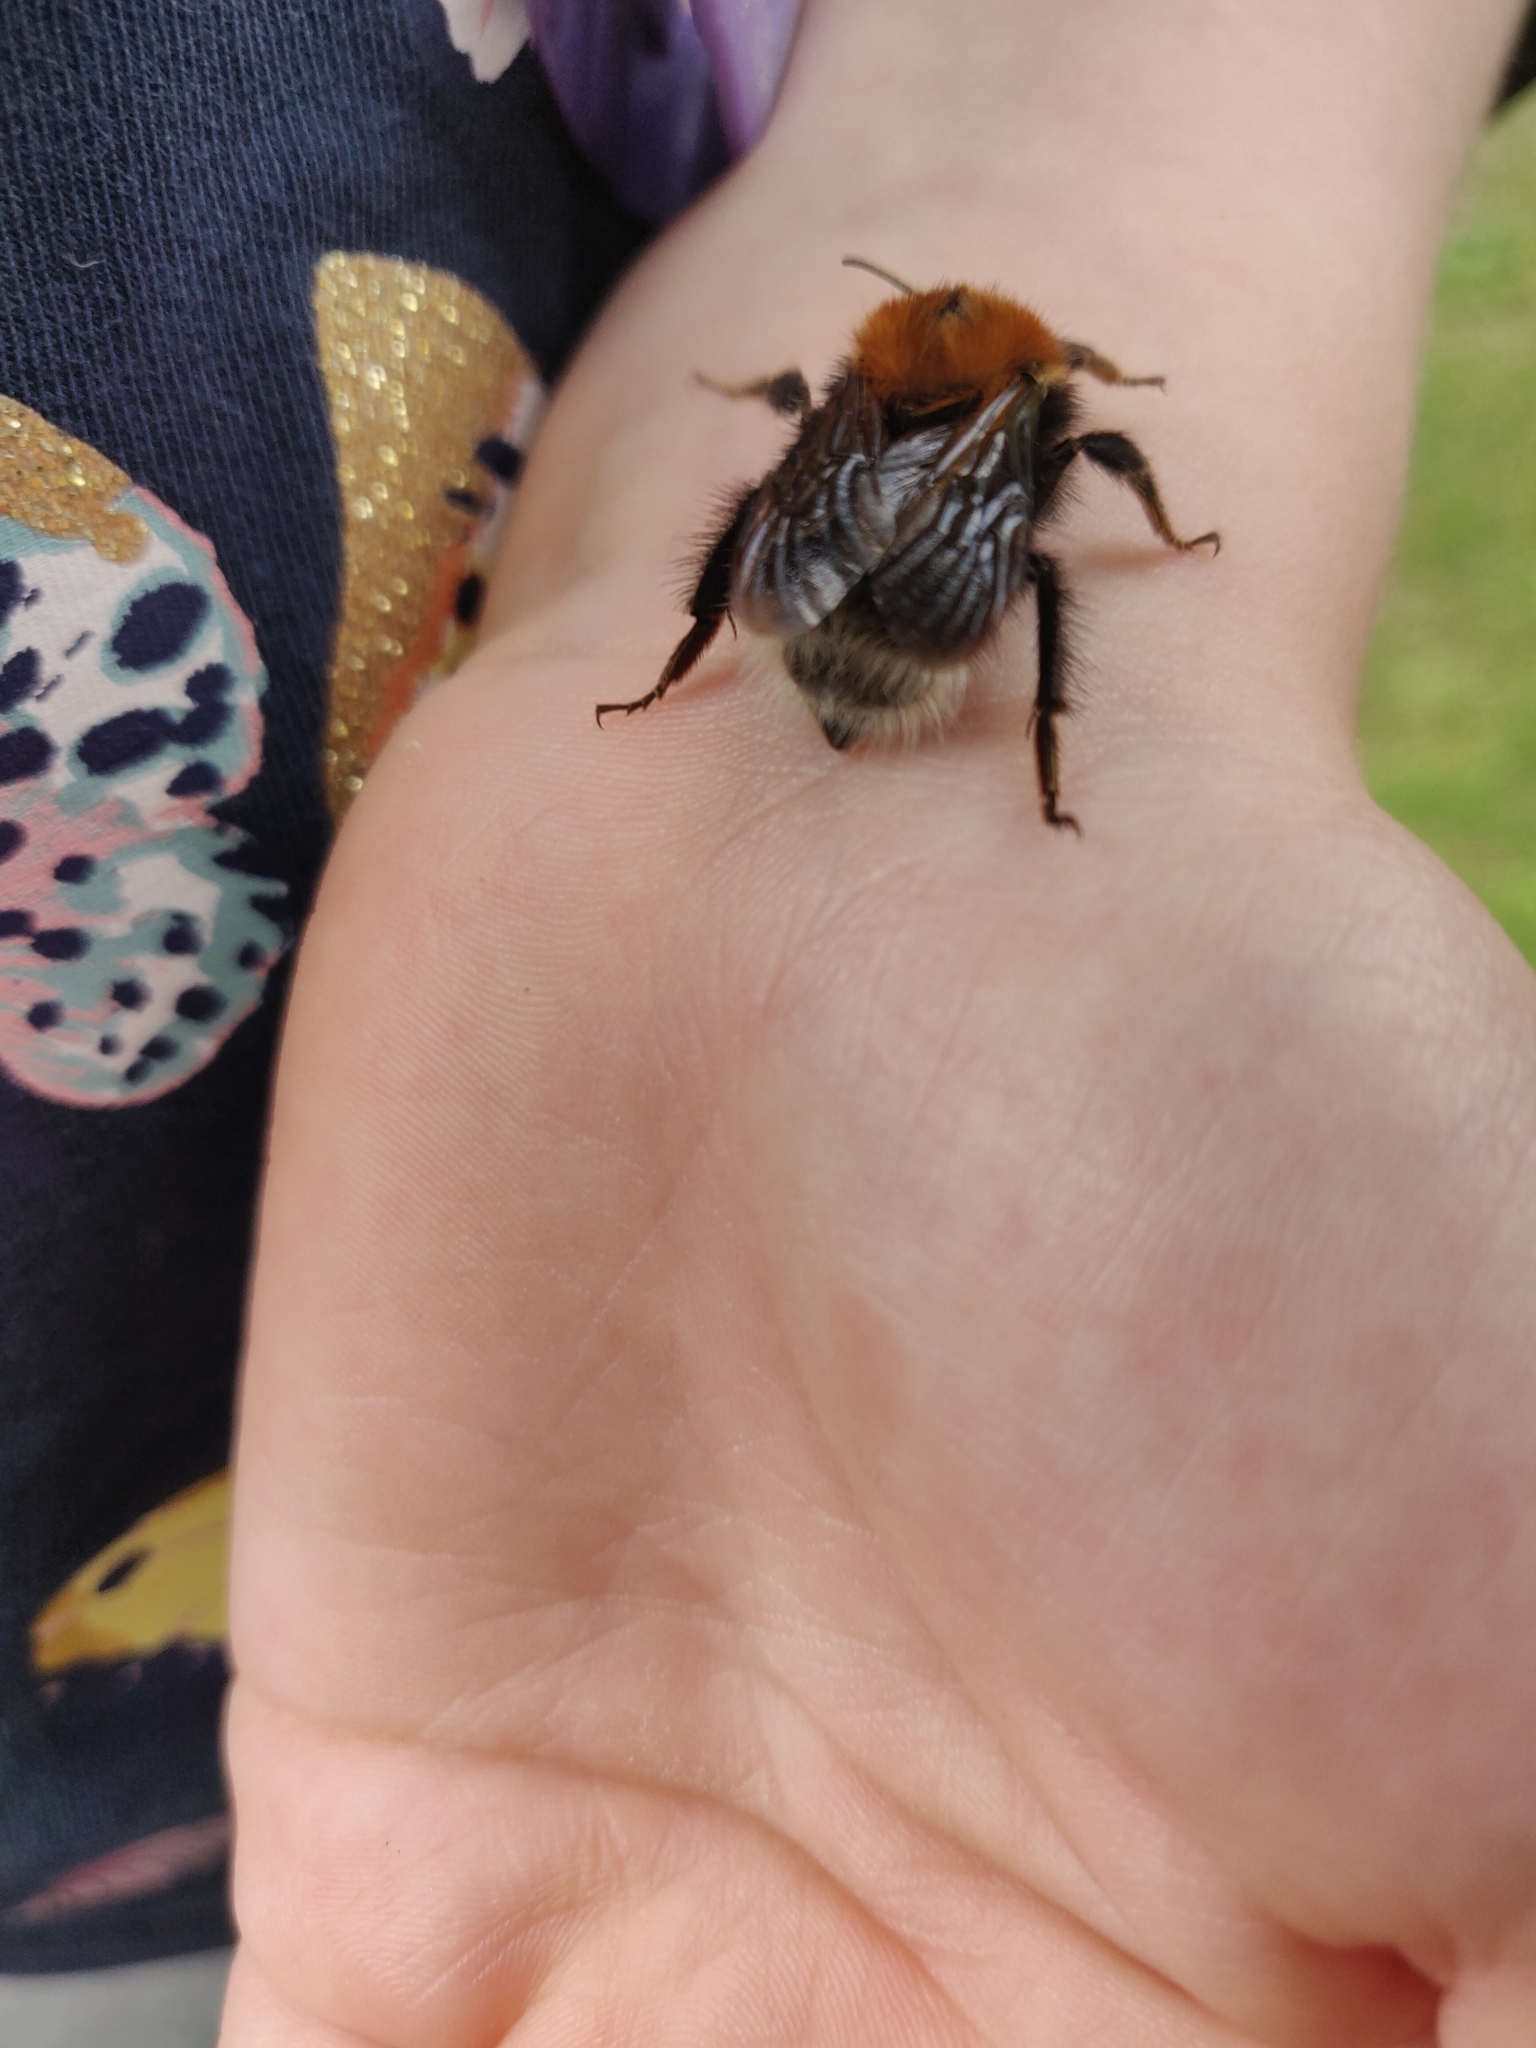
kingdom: Animalia
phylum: Arthropoda
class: Insecta
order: Hymenoptera
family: Apidae
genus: Bombus
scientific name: Bombus hypnorum
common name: New garden bumblebee
